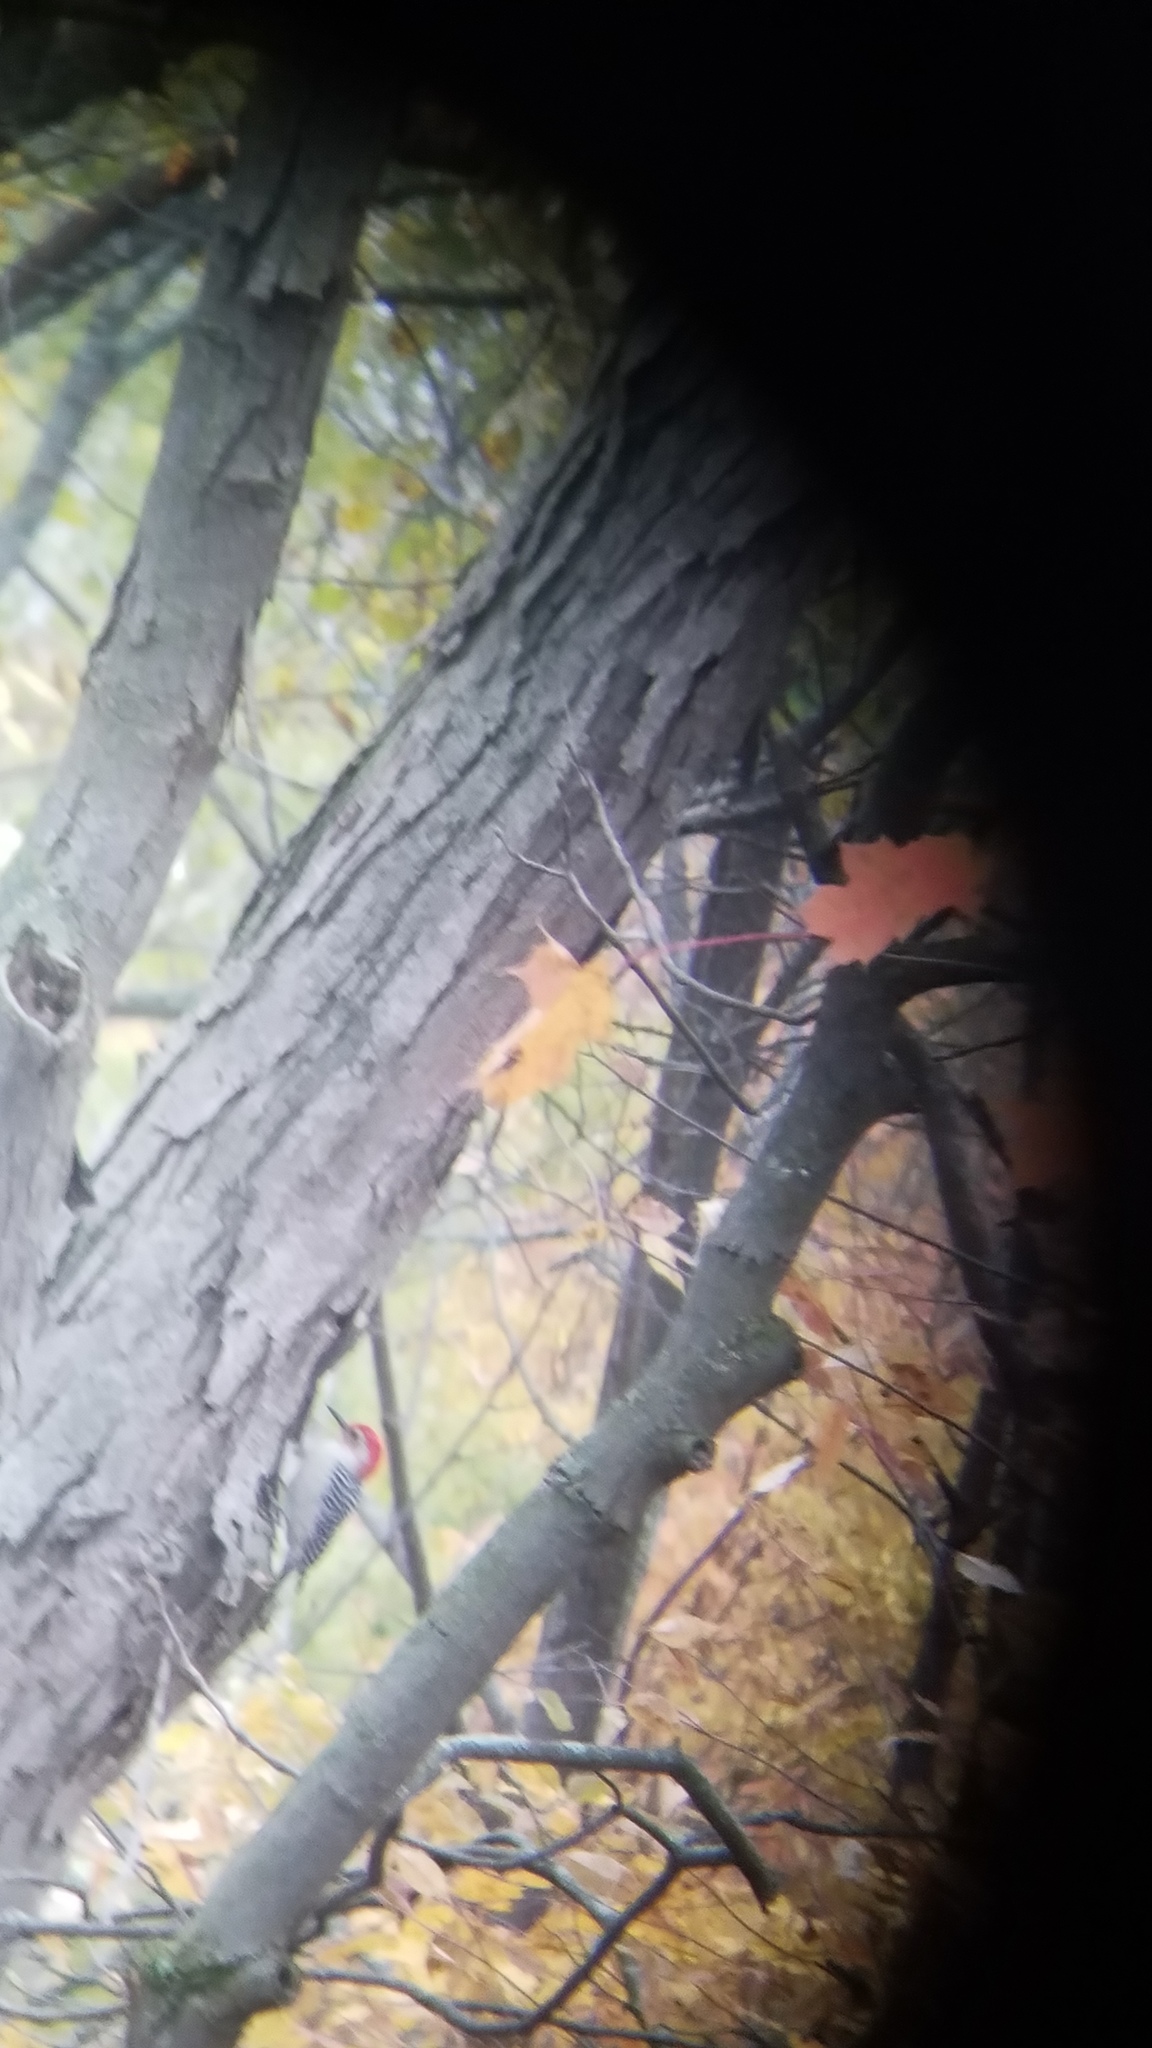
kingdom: Animalia
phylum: Chordata
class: Aves
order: Piciformes
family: Picidae
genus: Melanerpes
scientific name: Melanerpes carolinus
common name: Red-bellied woodpecker
